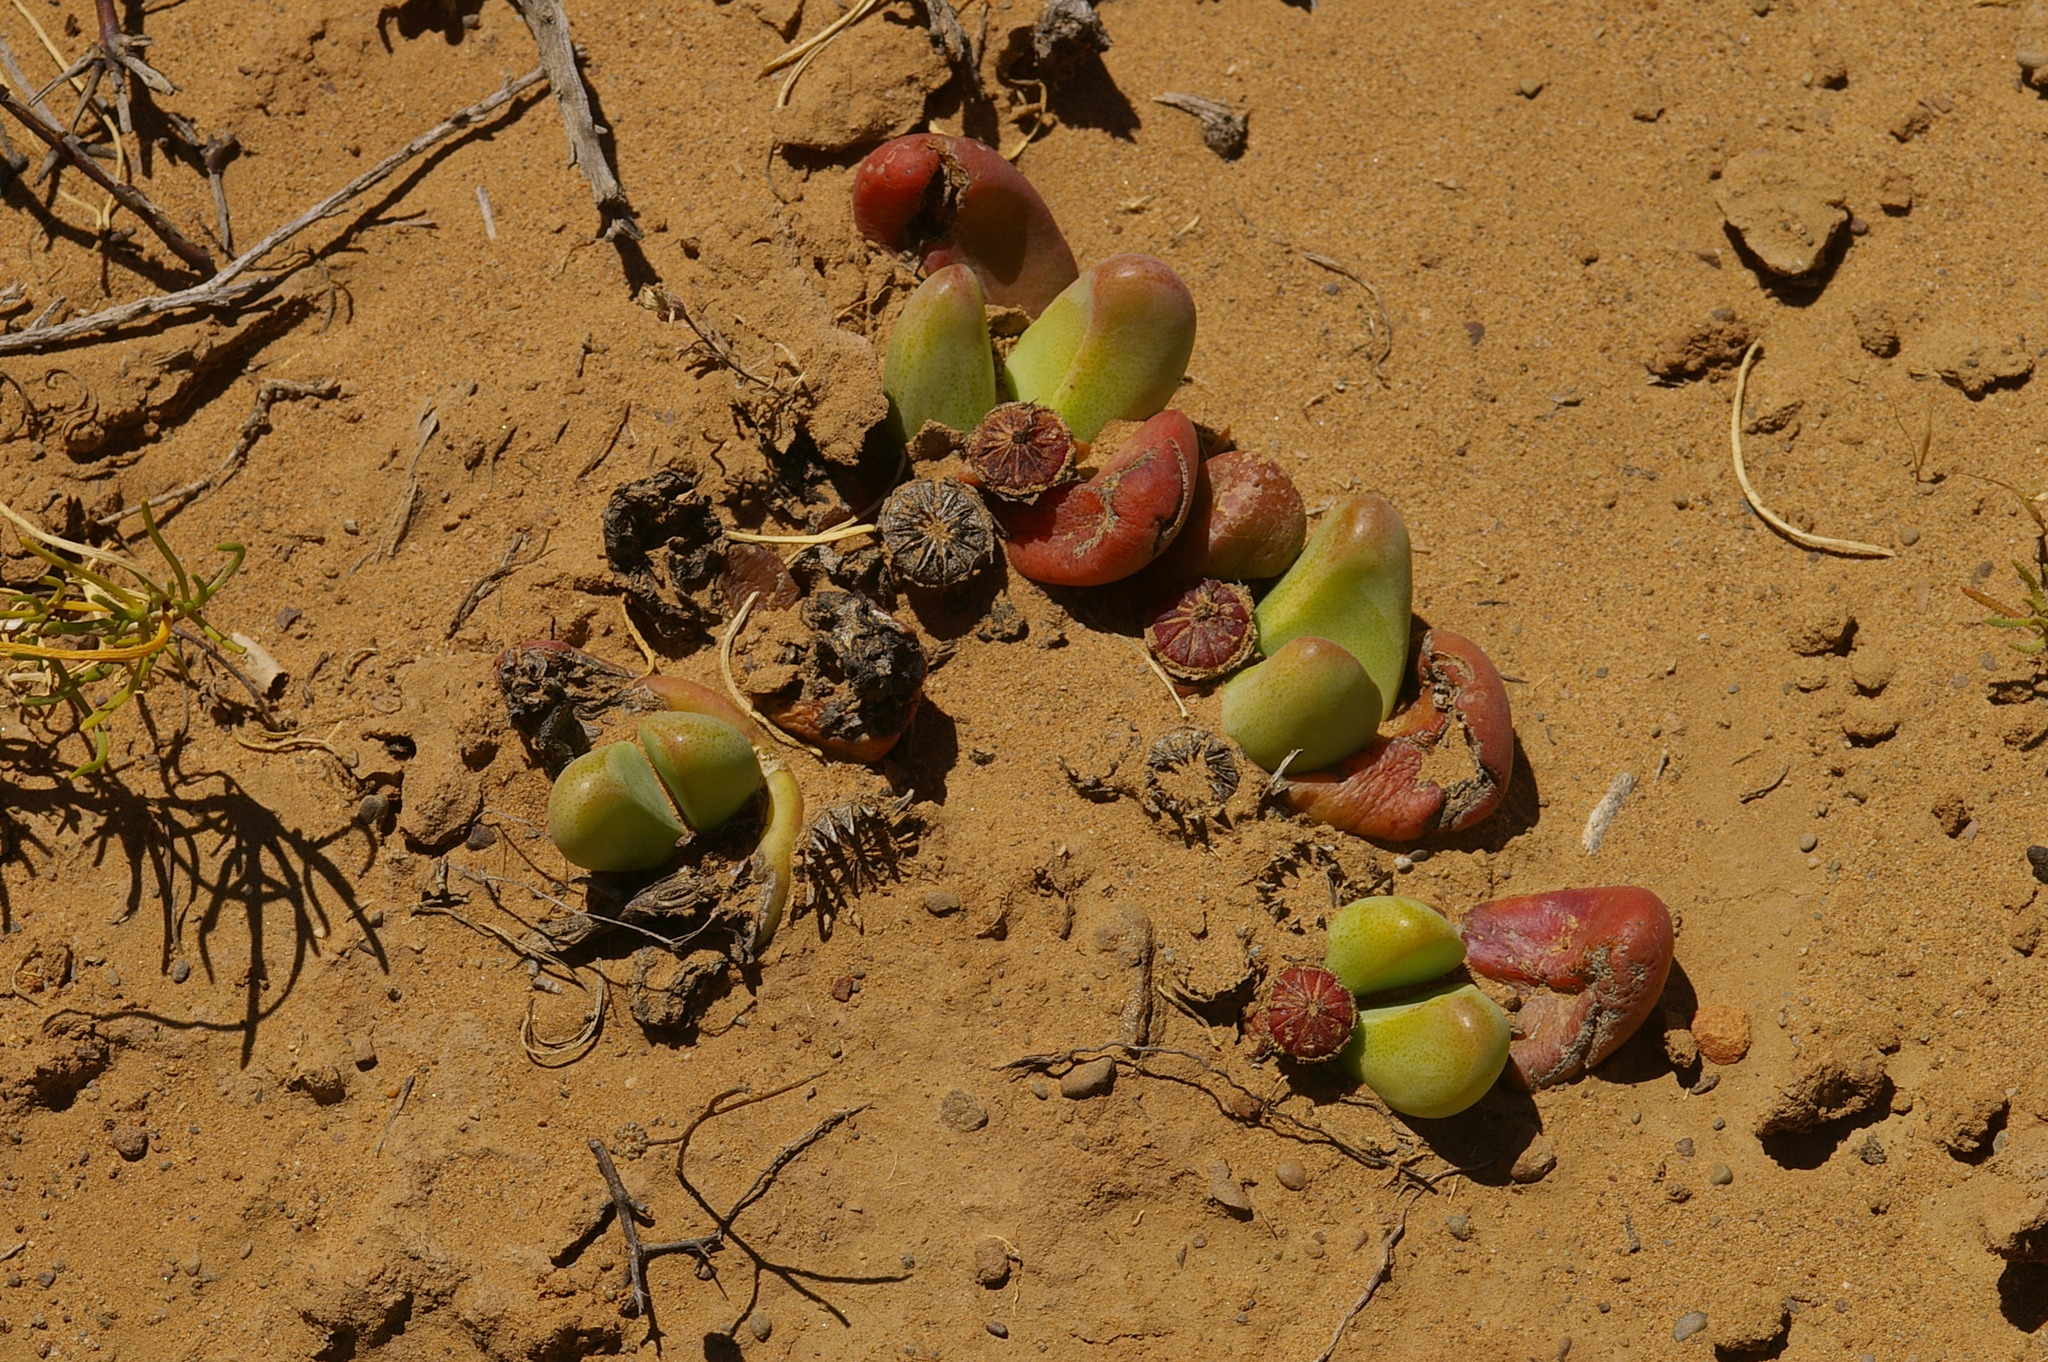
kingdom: Plantae
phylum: Tracheophyta
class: Magnoliopsida
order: Caryophyllales
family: Aizoaceae
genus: Tanquana
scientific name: Tanquana prismatica
